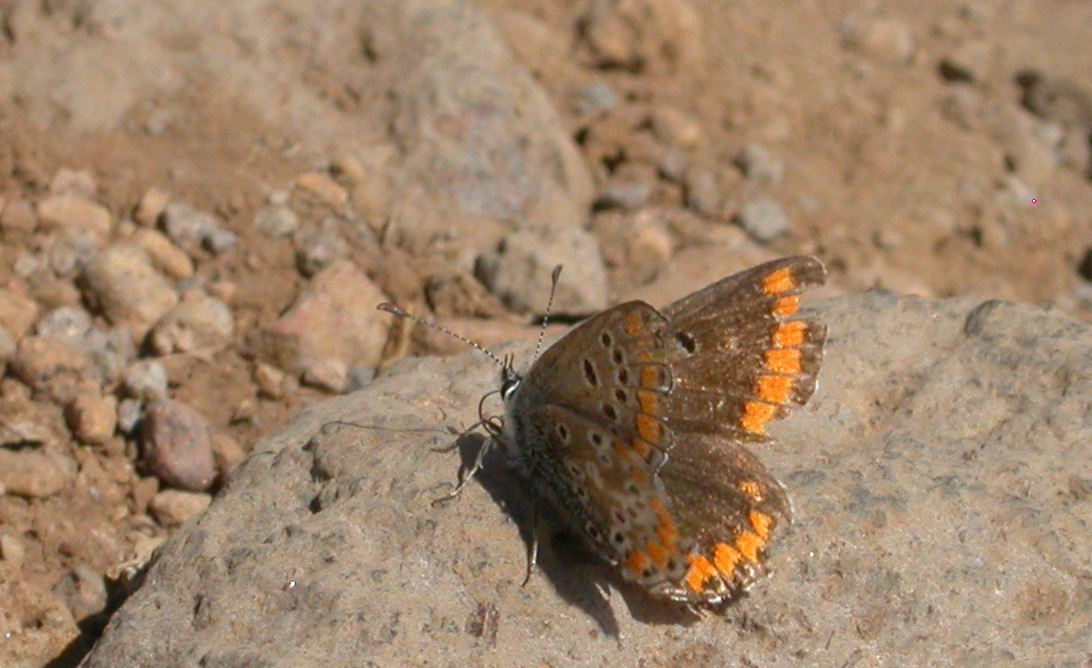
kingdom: Animalia
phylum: Arthropoda
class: Insecta
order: Lepidoptera
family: Lycaenidae
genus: Aricia
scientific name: Aricia agestis
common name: Brown argus
